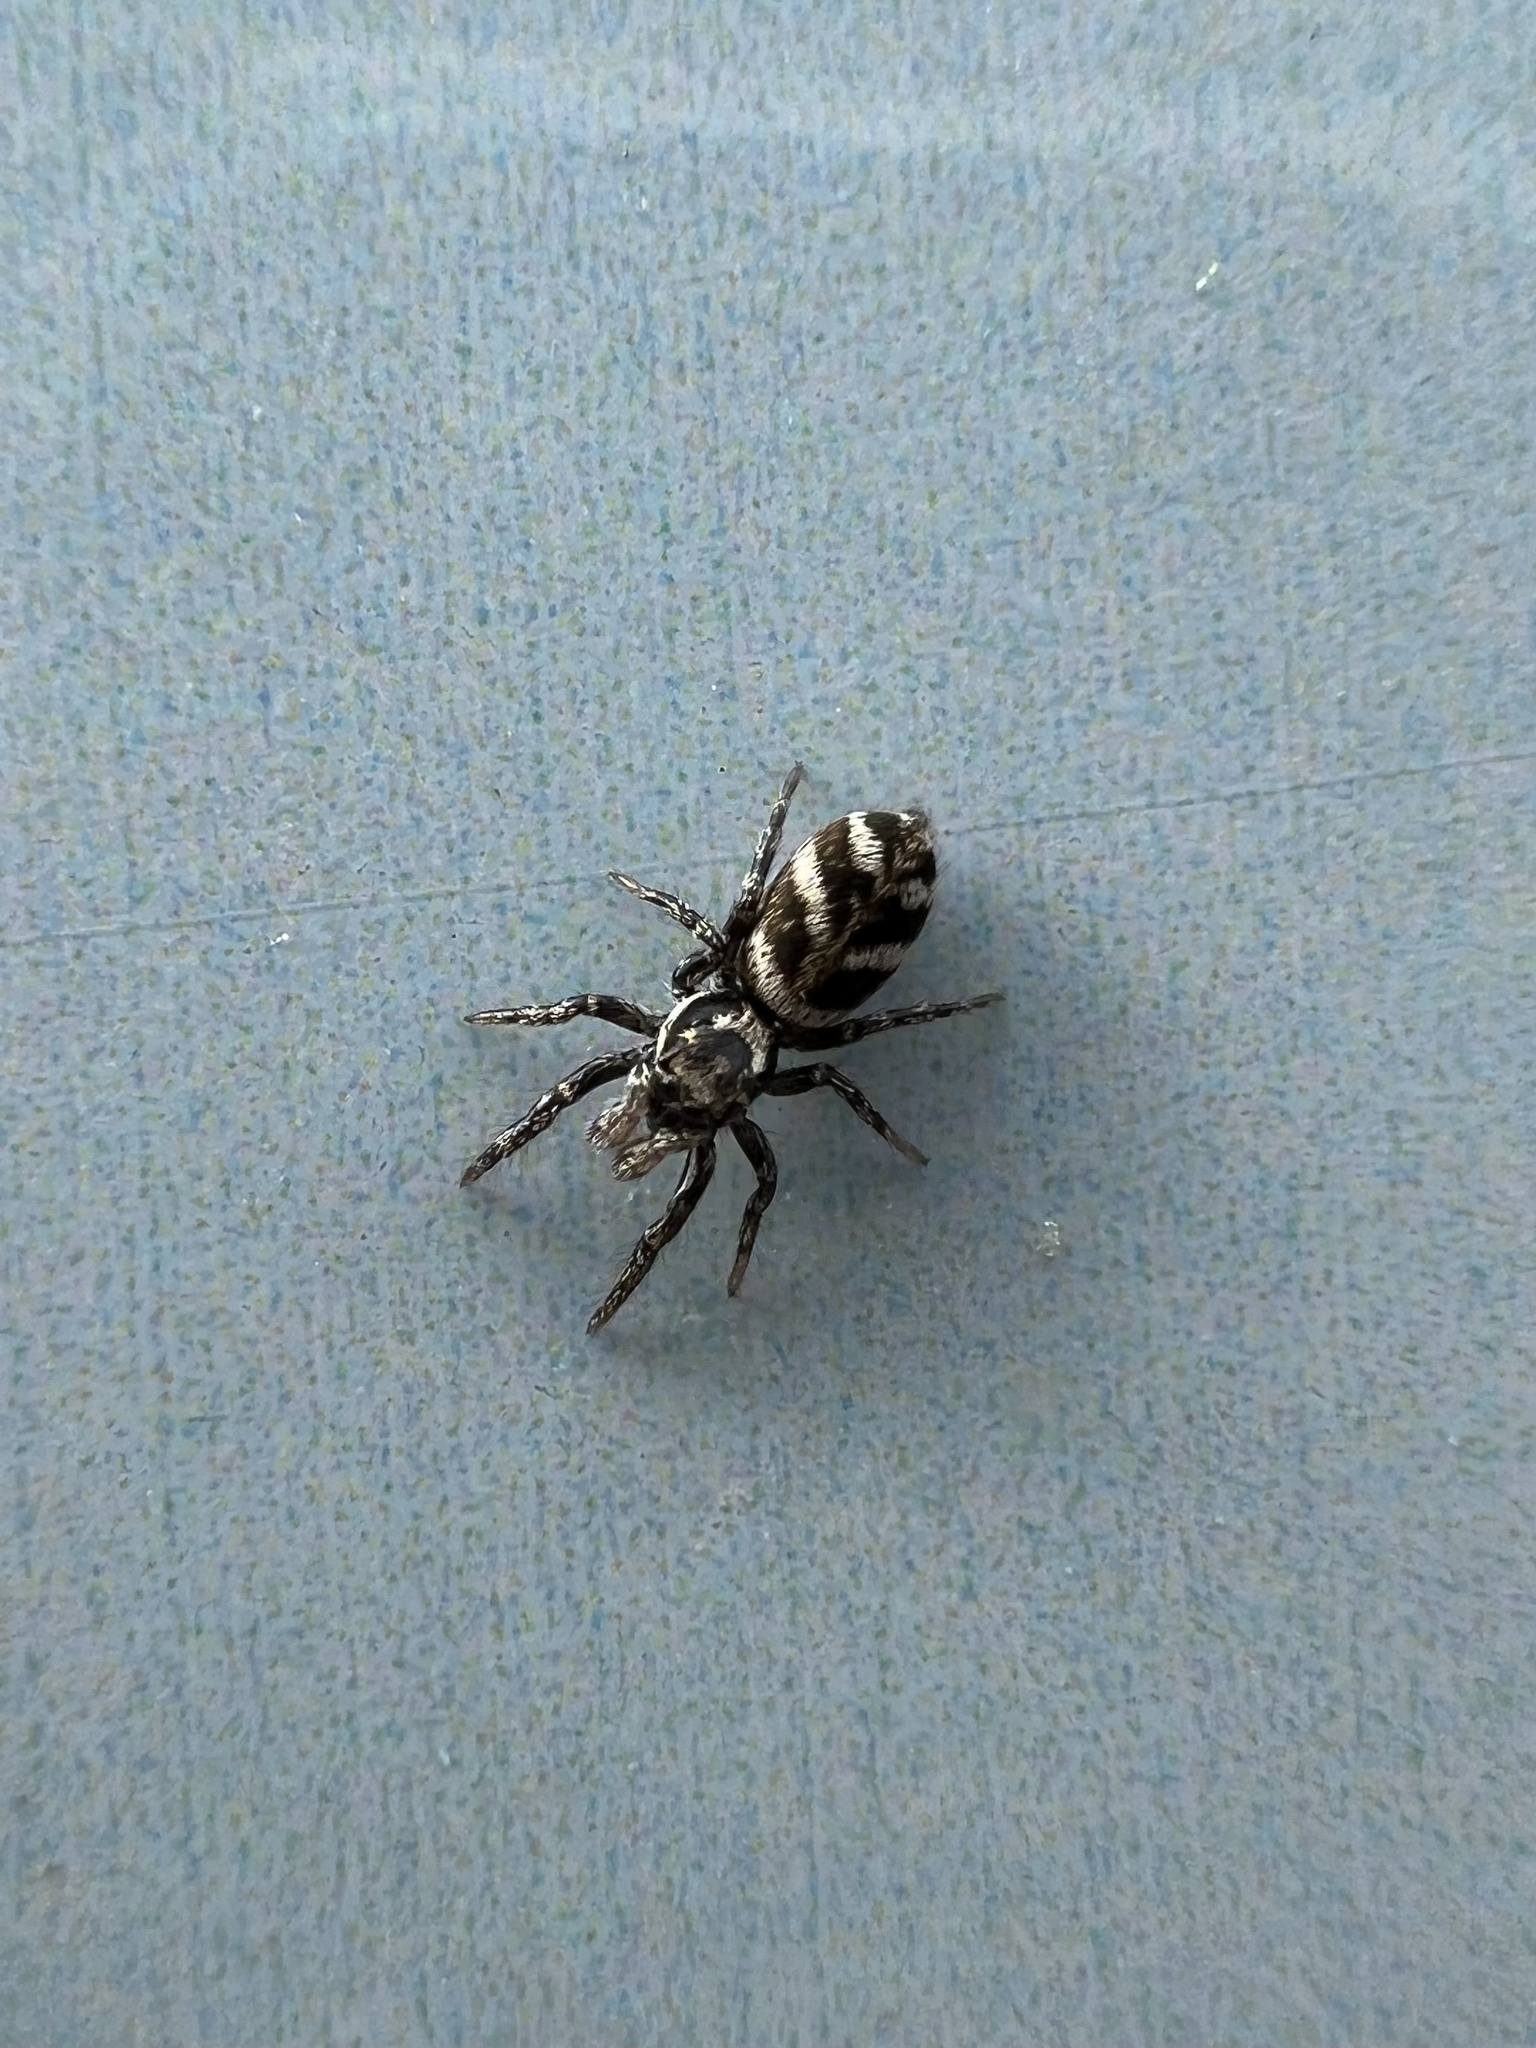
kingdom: Animalia
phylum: Arthropoda
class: Arachnida
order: Araneae
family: Salticidae
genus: Salticus
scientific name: Salticus scenicus
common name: Zebra jumper
